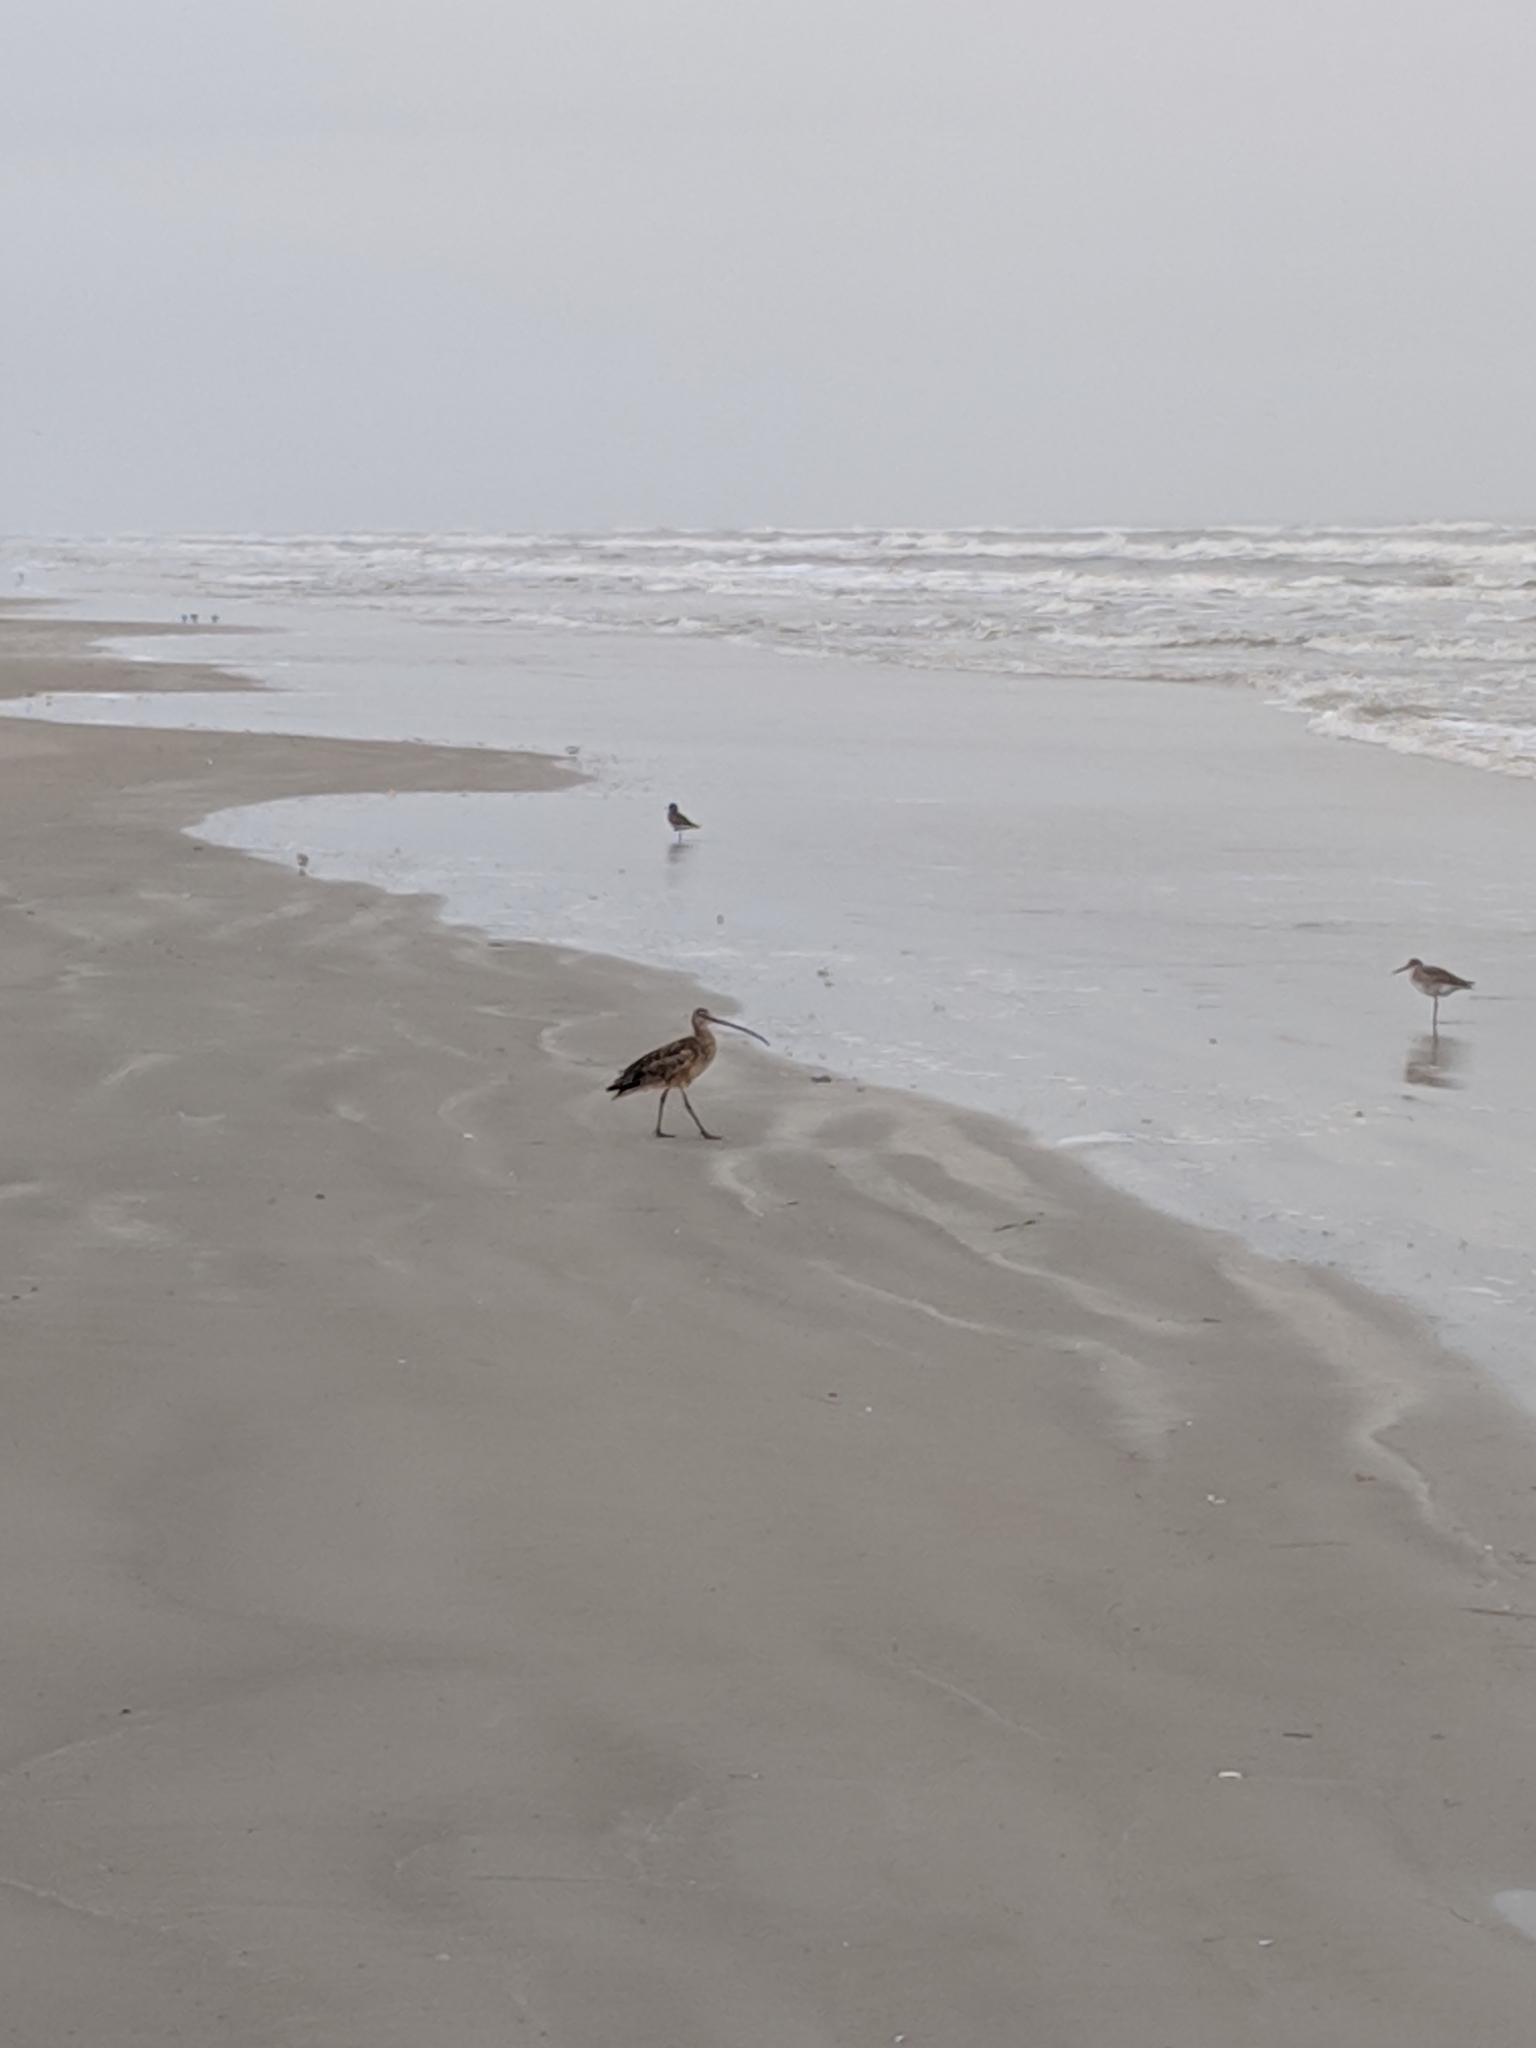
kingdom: Animalia
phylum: Chordata
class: Aves
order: Charadriiformes
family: Charadriidae
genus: Pluvialis
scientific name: Pluvialis squatarola
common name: Grey plover
